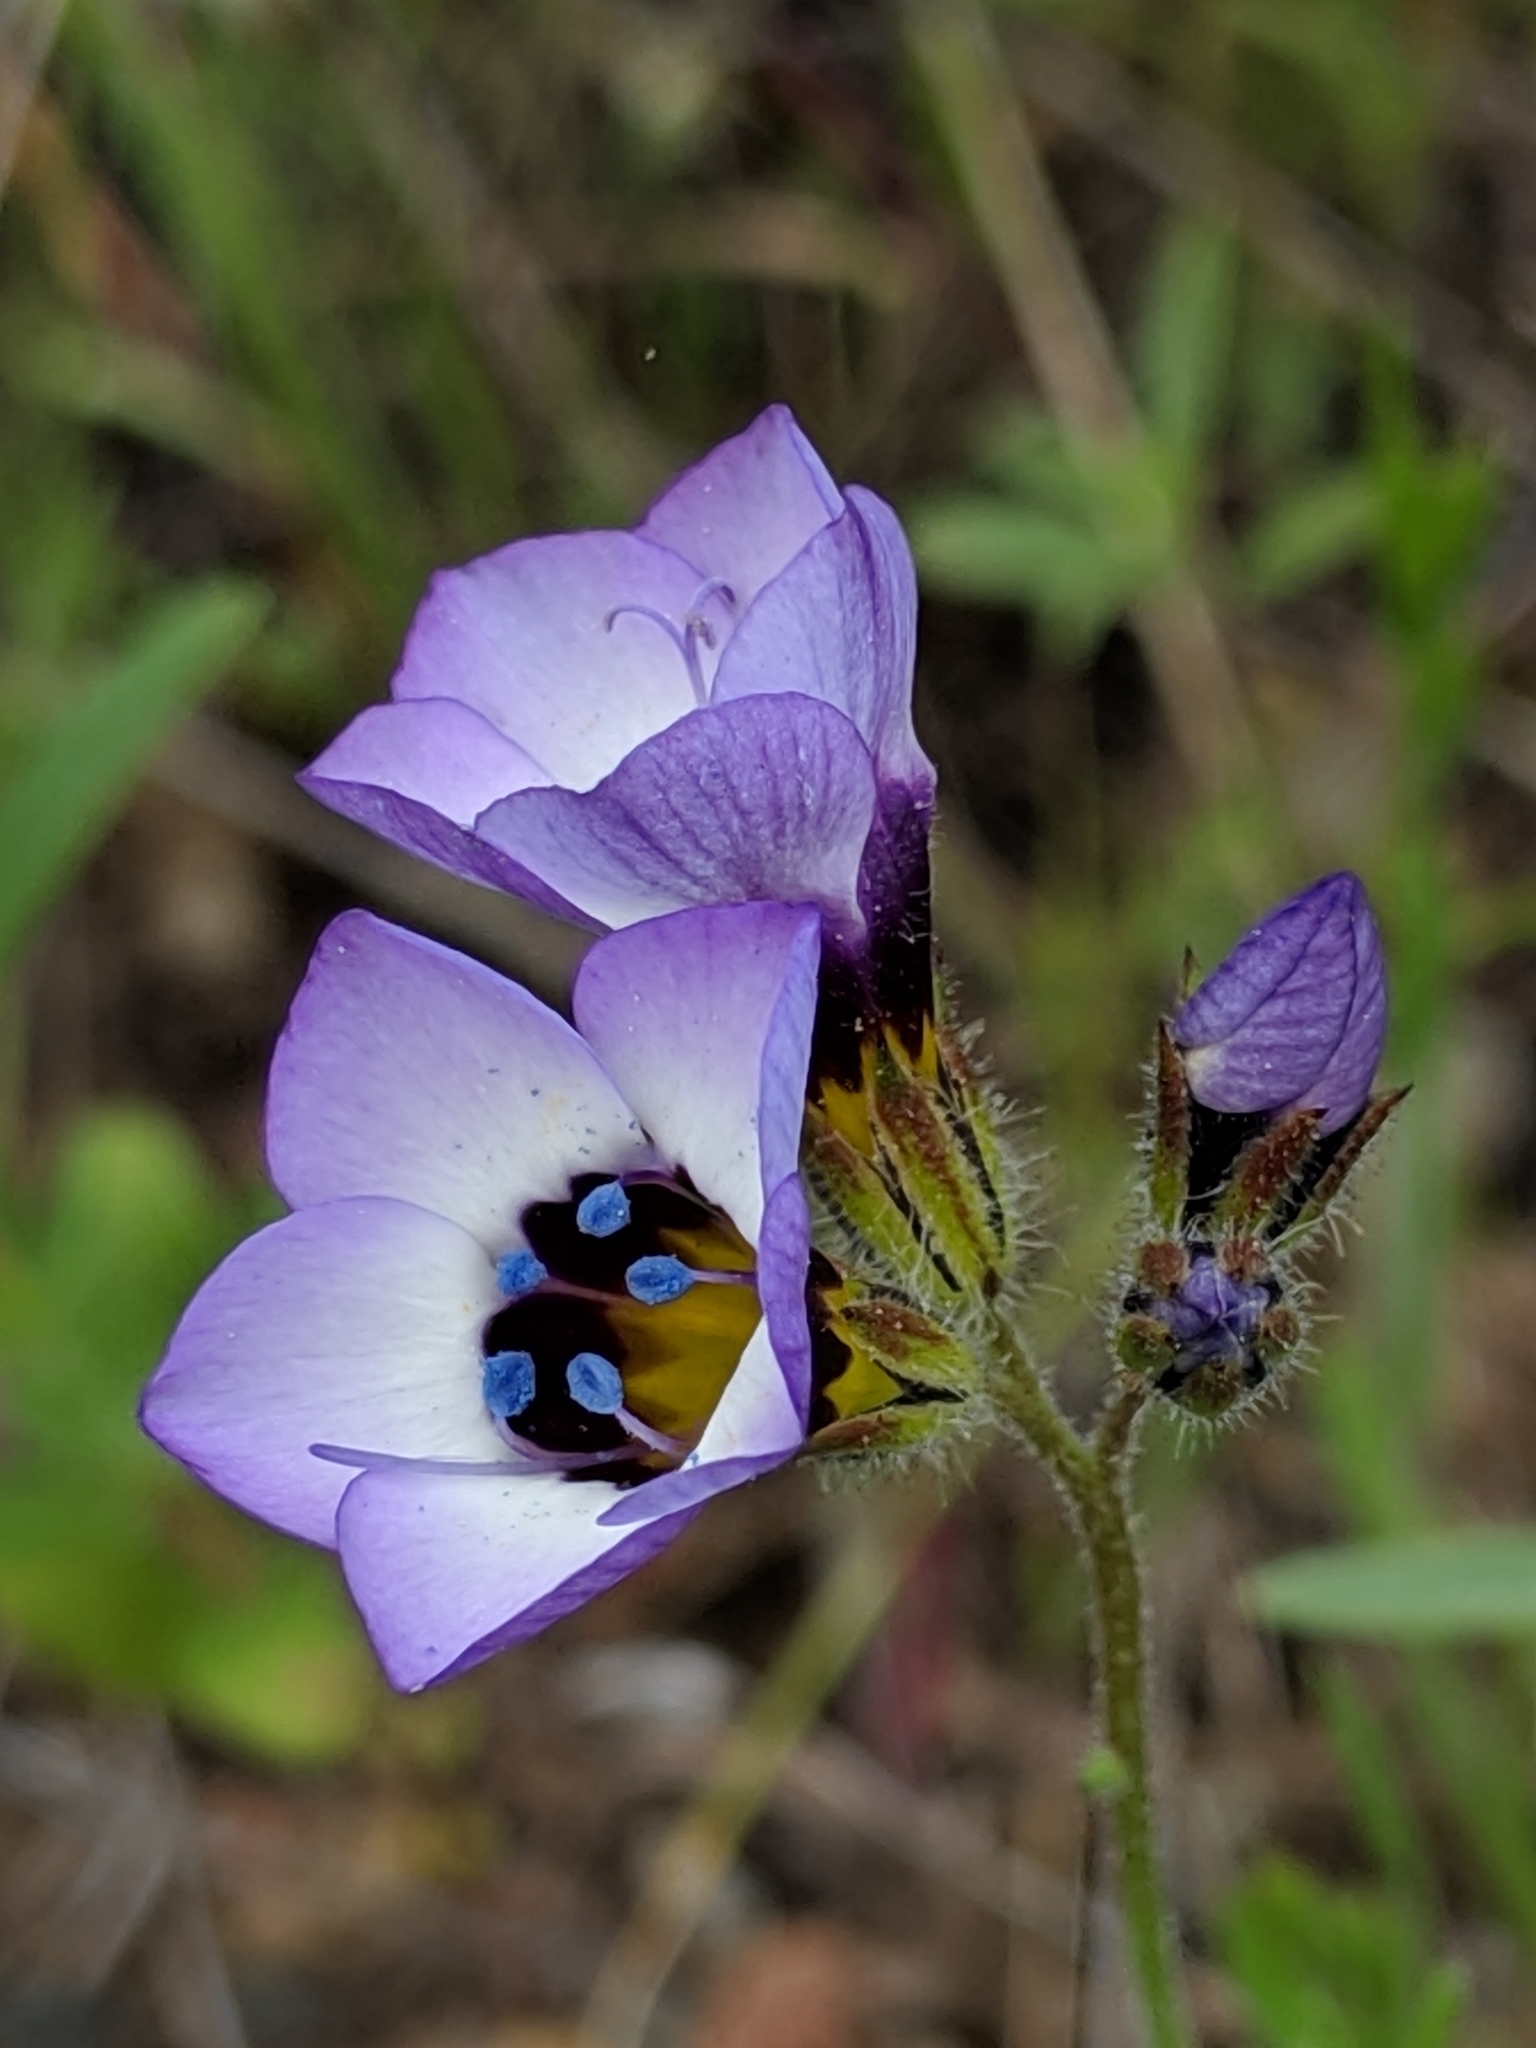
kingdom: Plantae
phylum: Tracheophyta
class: Magnoliopsida
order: Ericales
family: Polemoniaceae
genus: Gilia
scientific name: Gilia tricolor
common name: Bird's-eyes
